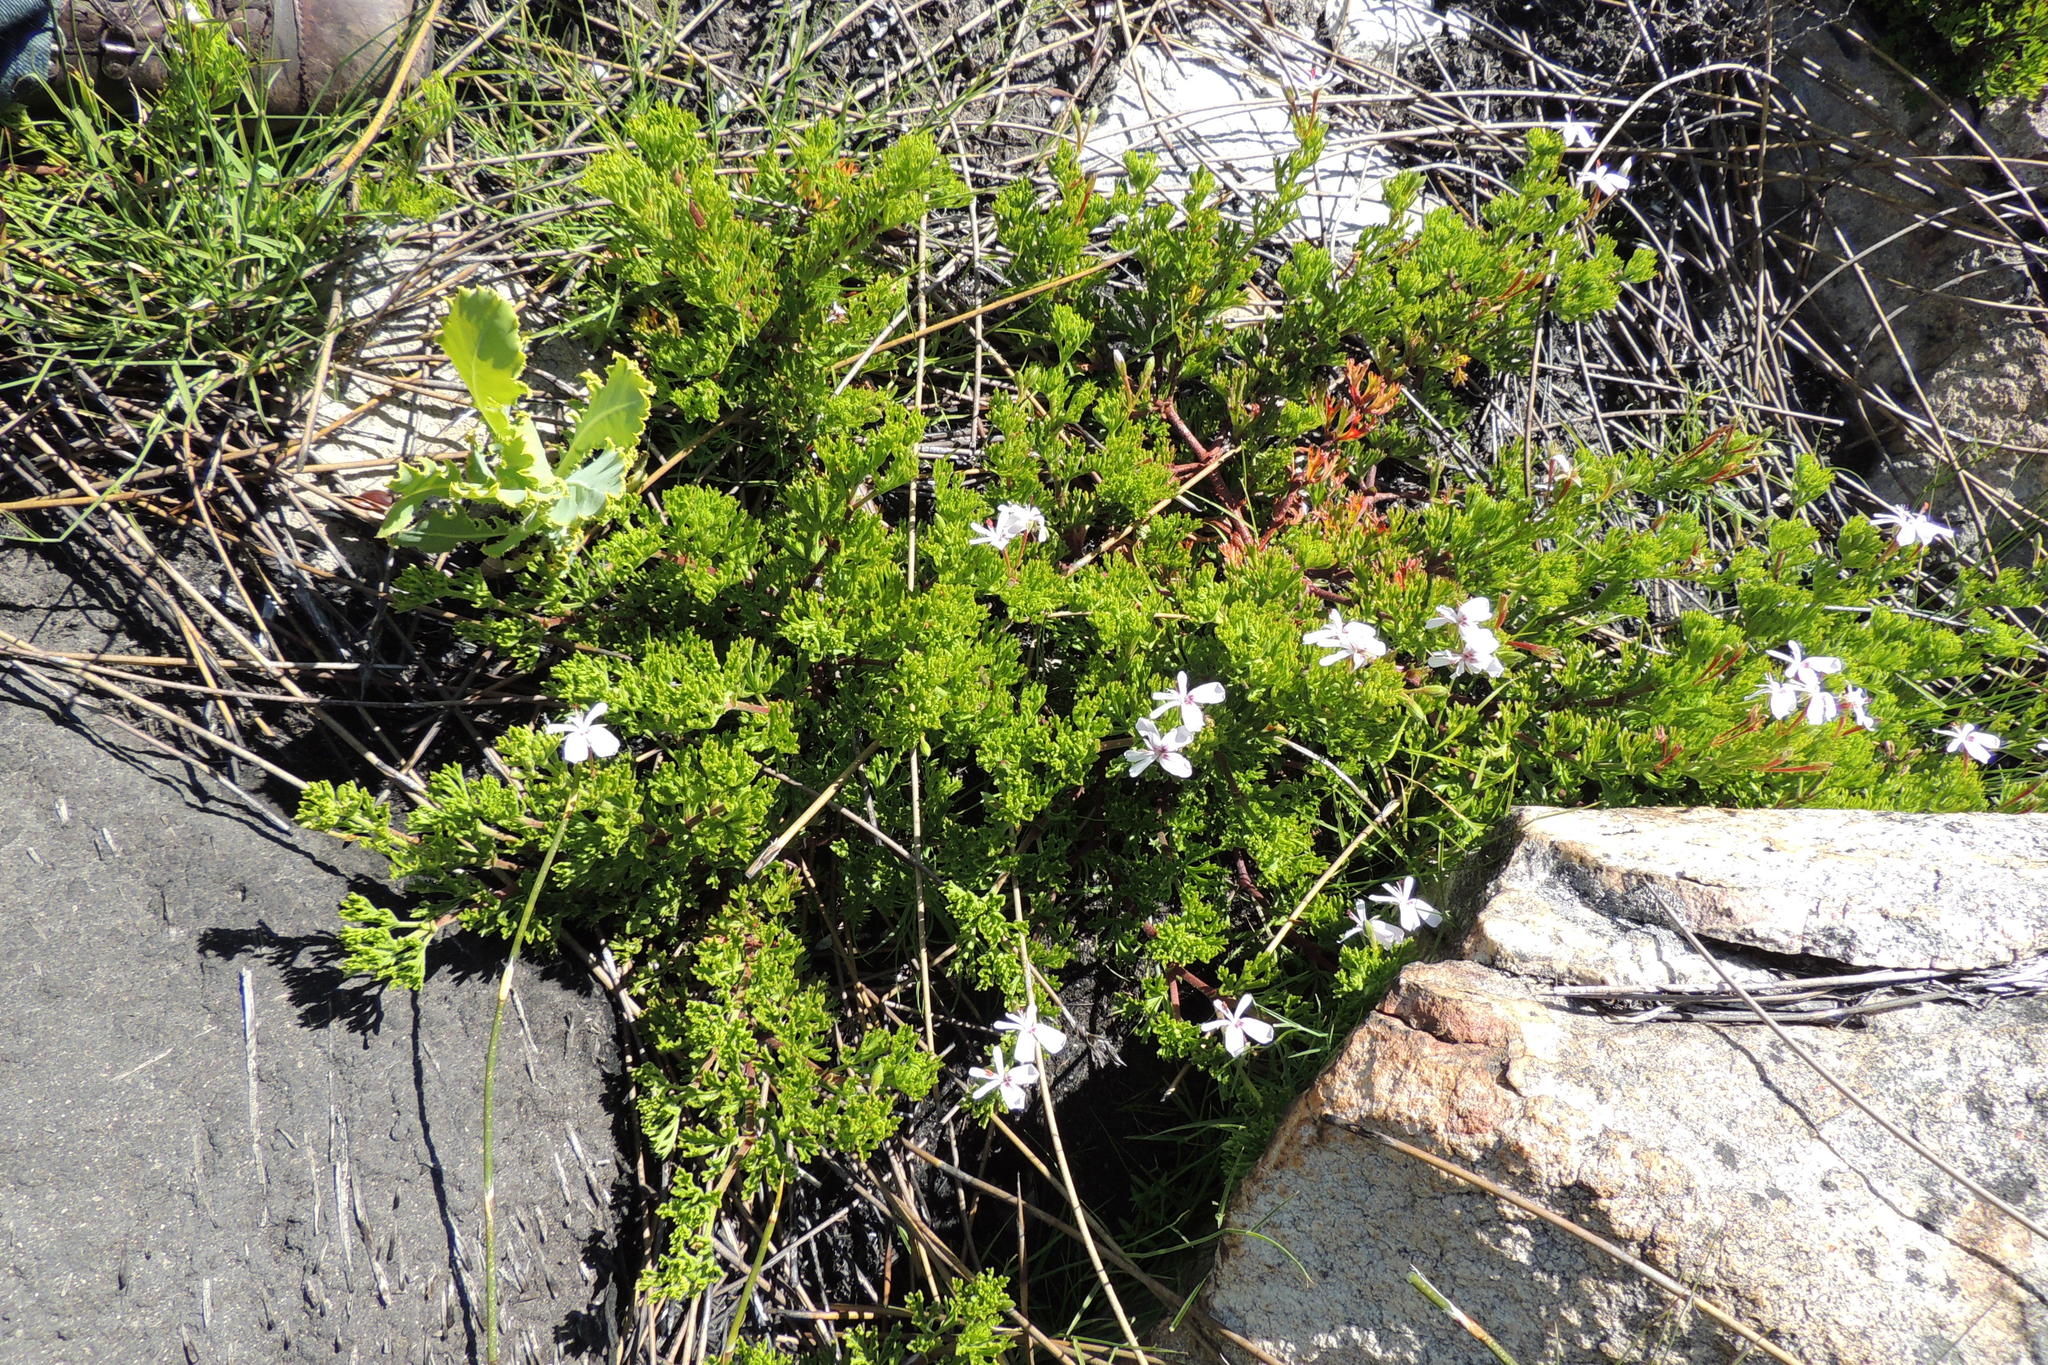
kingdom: Plantae
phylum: Tracheophyta
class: Magnoliopsida
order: Geraniales
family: Geraniaceae
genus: Pelargonium
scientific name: Pelargonium ternatum
